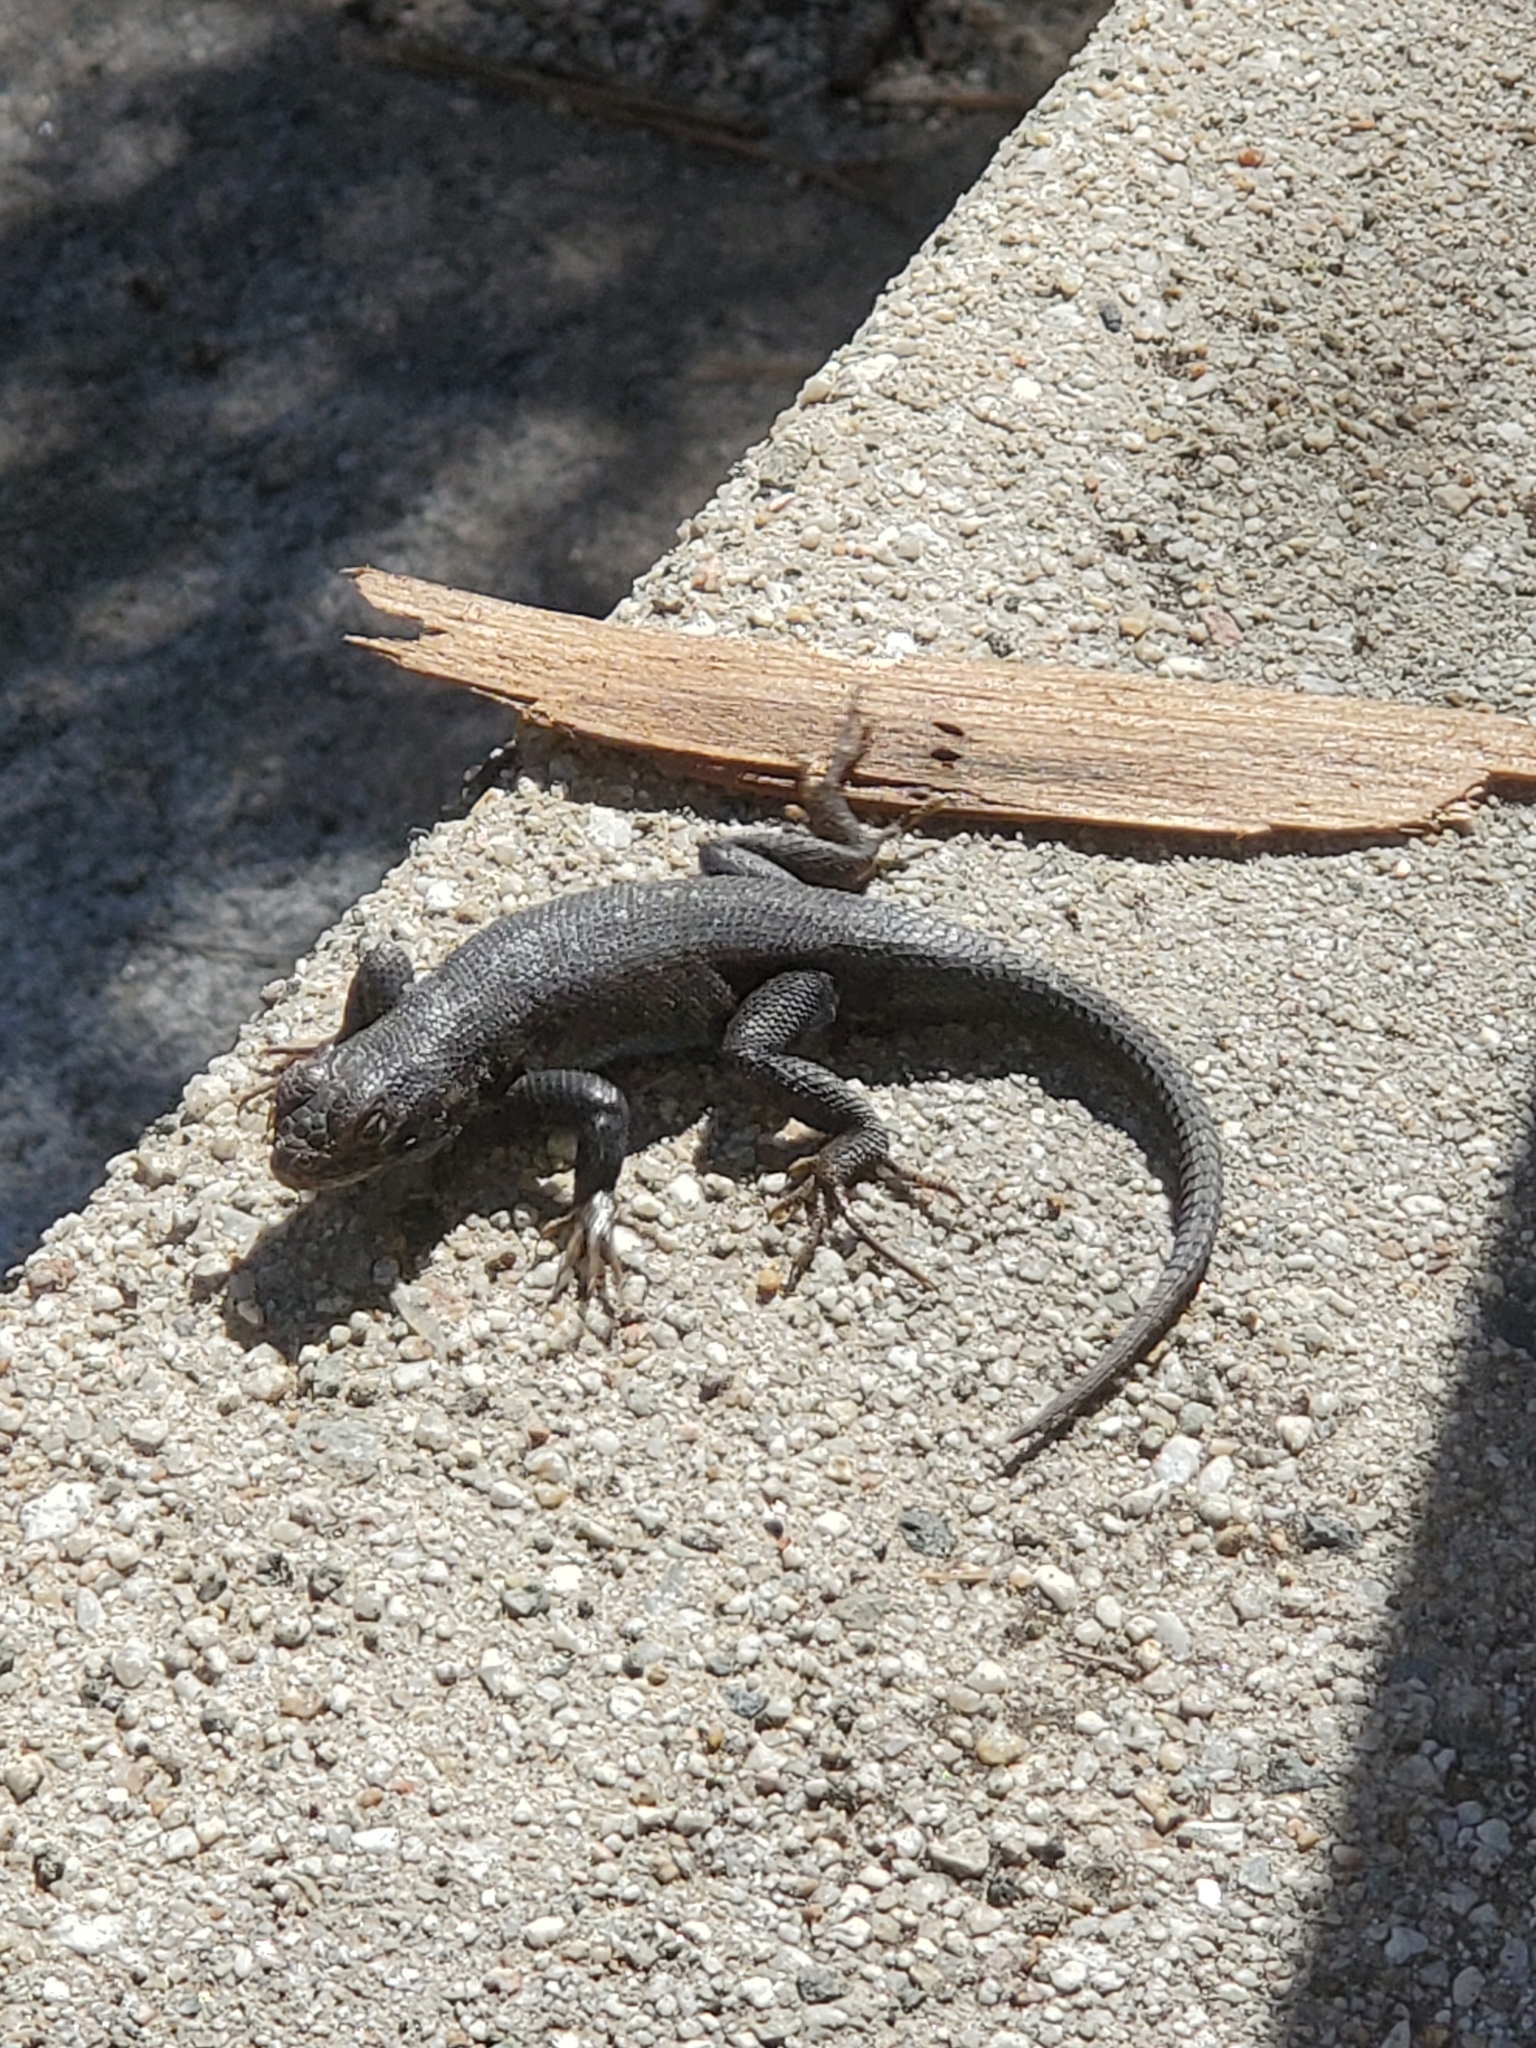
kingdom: Animalia
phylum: Chordata
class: Squamata
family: Phrynosomatidae
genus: Sceloporus
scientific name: Sceloporus occidentalis
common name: Western fence lizard
